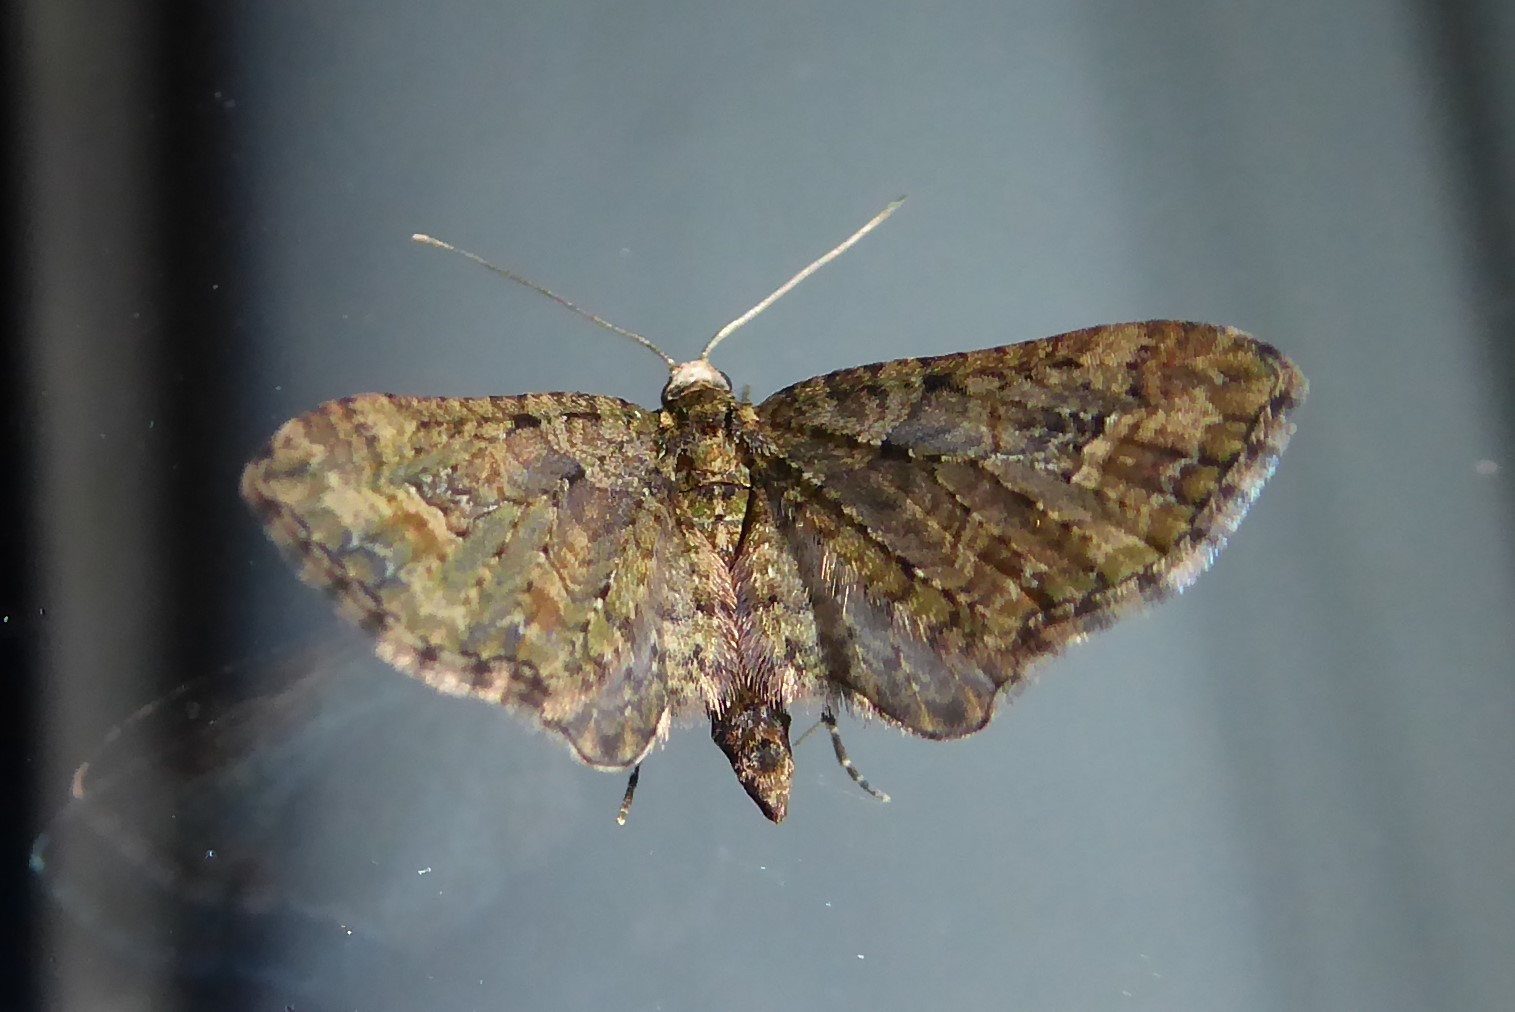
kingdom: Animalia
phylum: Arthropoda
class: Insecta
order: Lepidoptera
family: Geometridae
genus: Idaea
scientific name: Idaea mutanda
